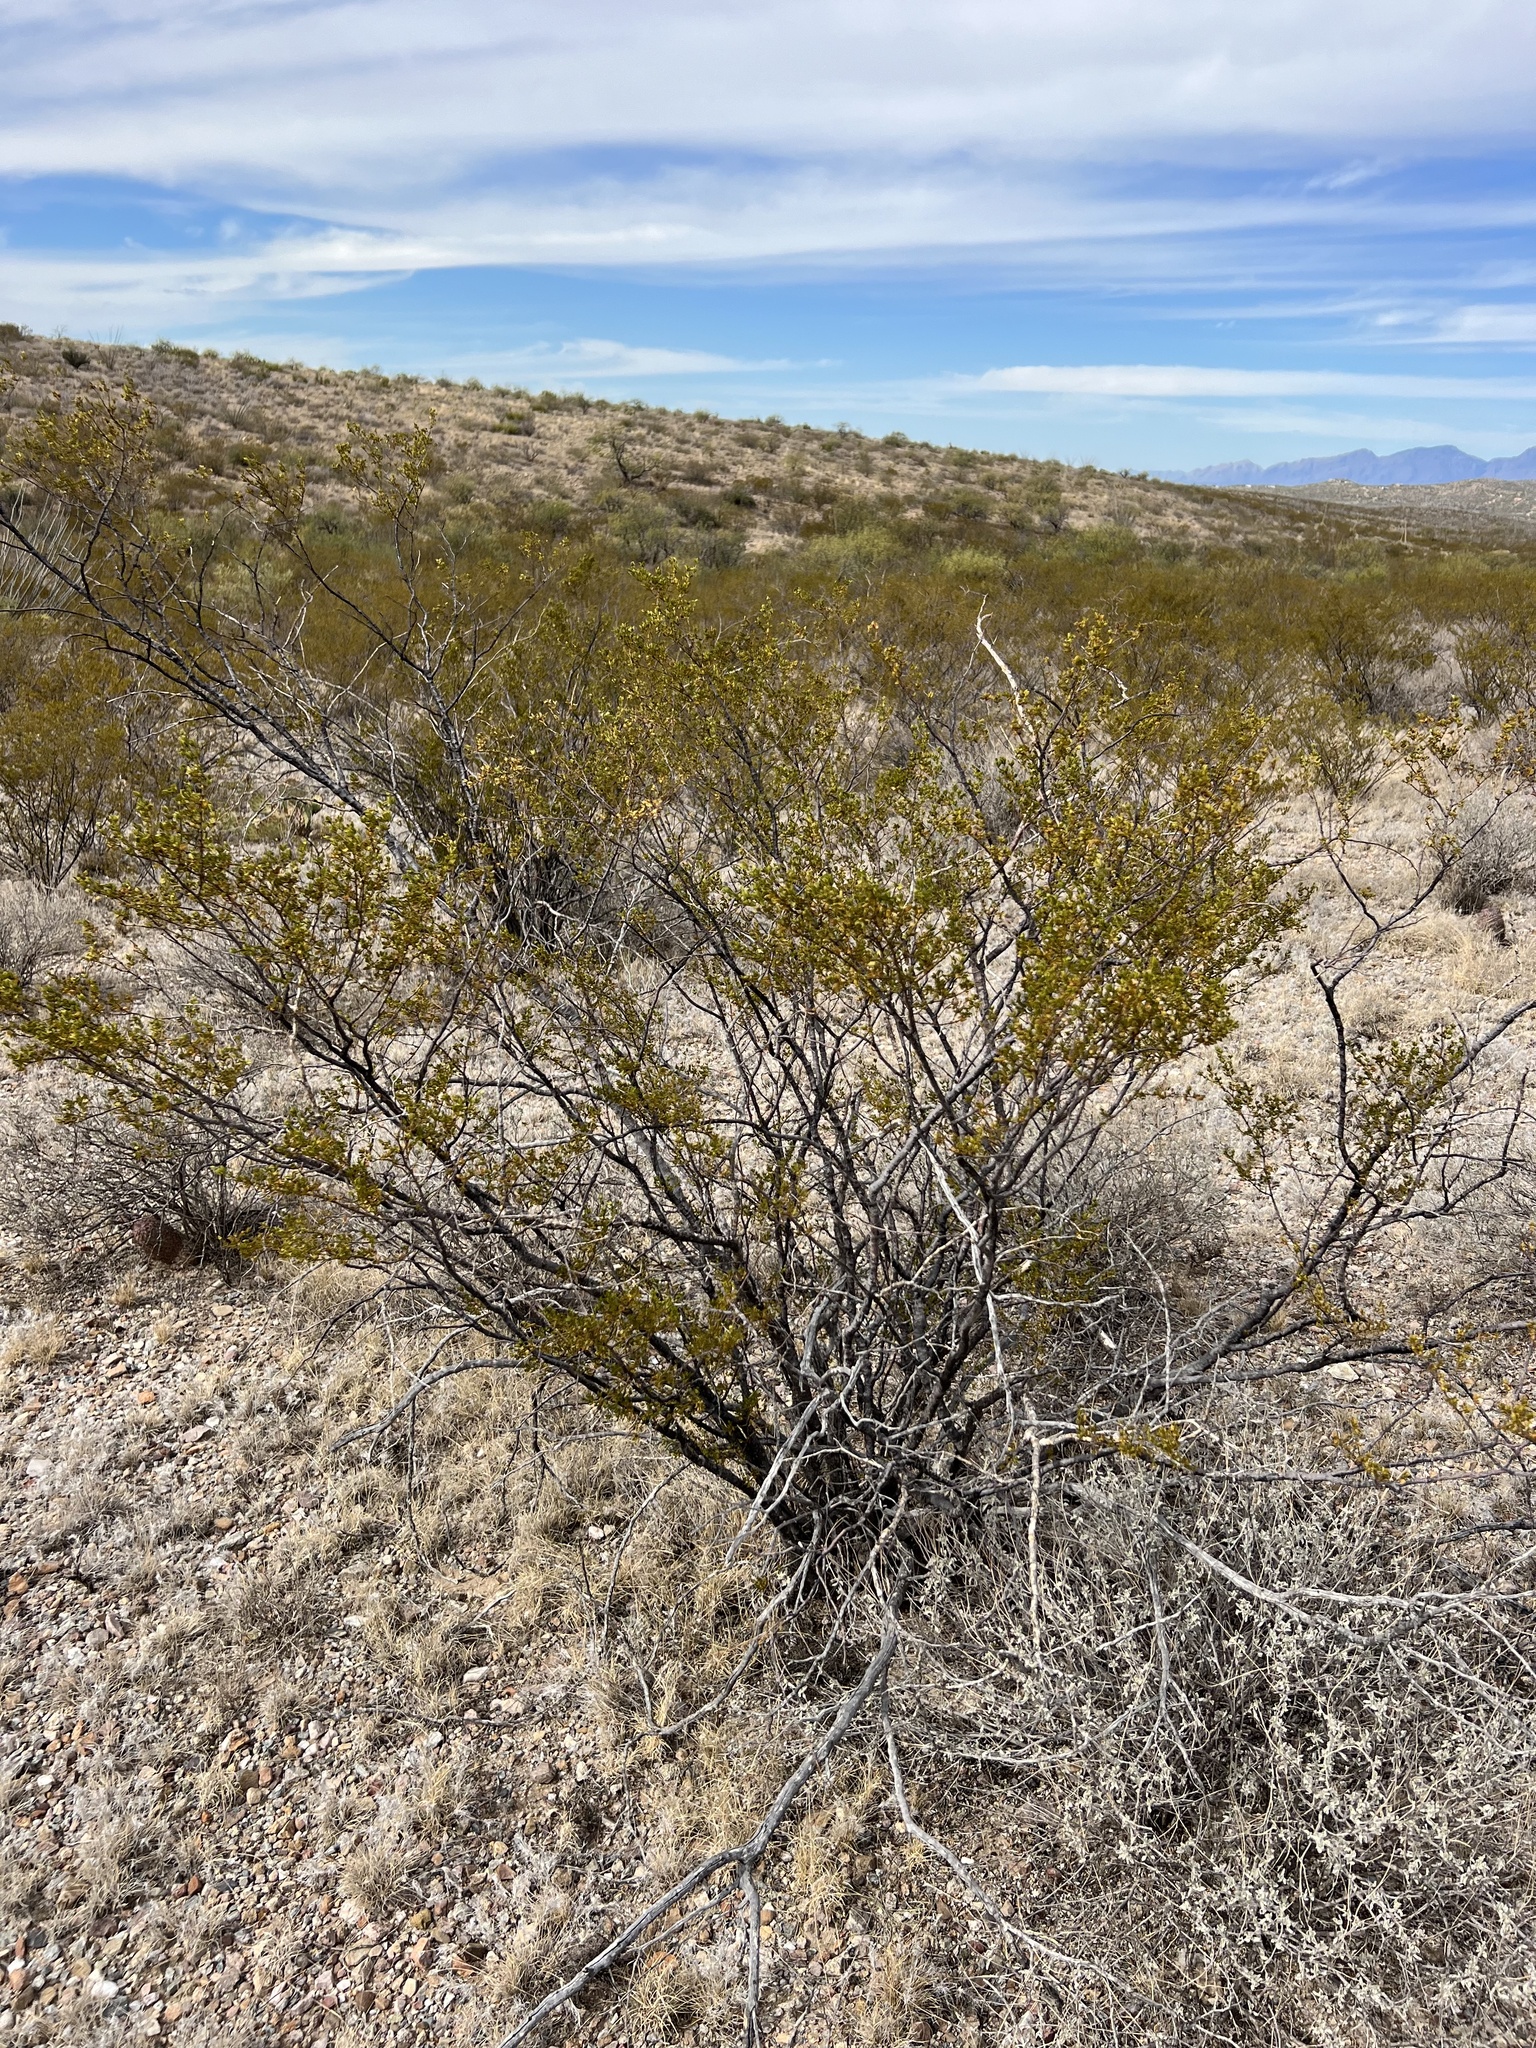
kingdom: Plantae
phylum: Tracheophyta
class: Magnoliopsida
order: Zygophyllales
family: Zygophyllaceae
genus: Larrea
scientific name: Larrea tridentata
